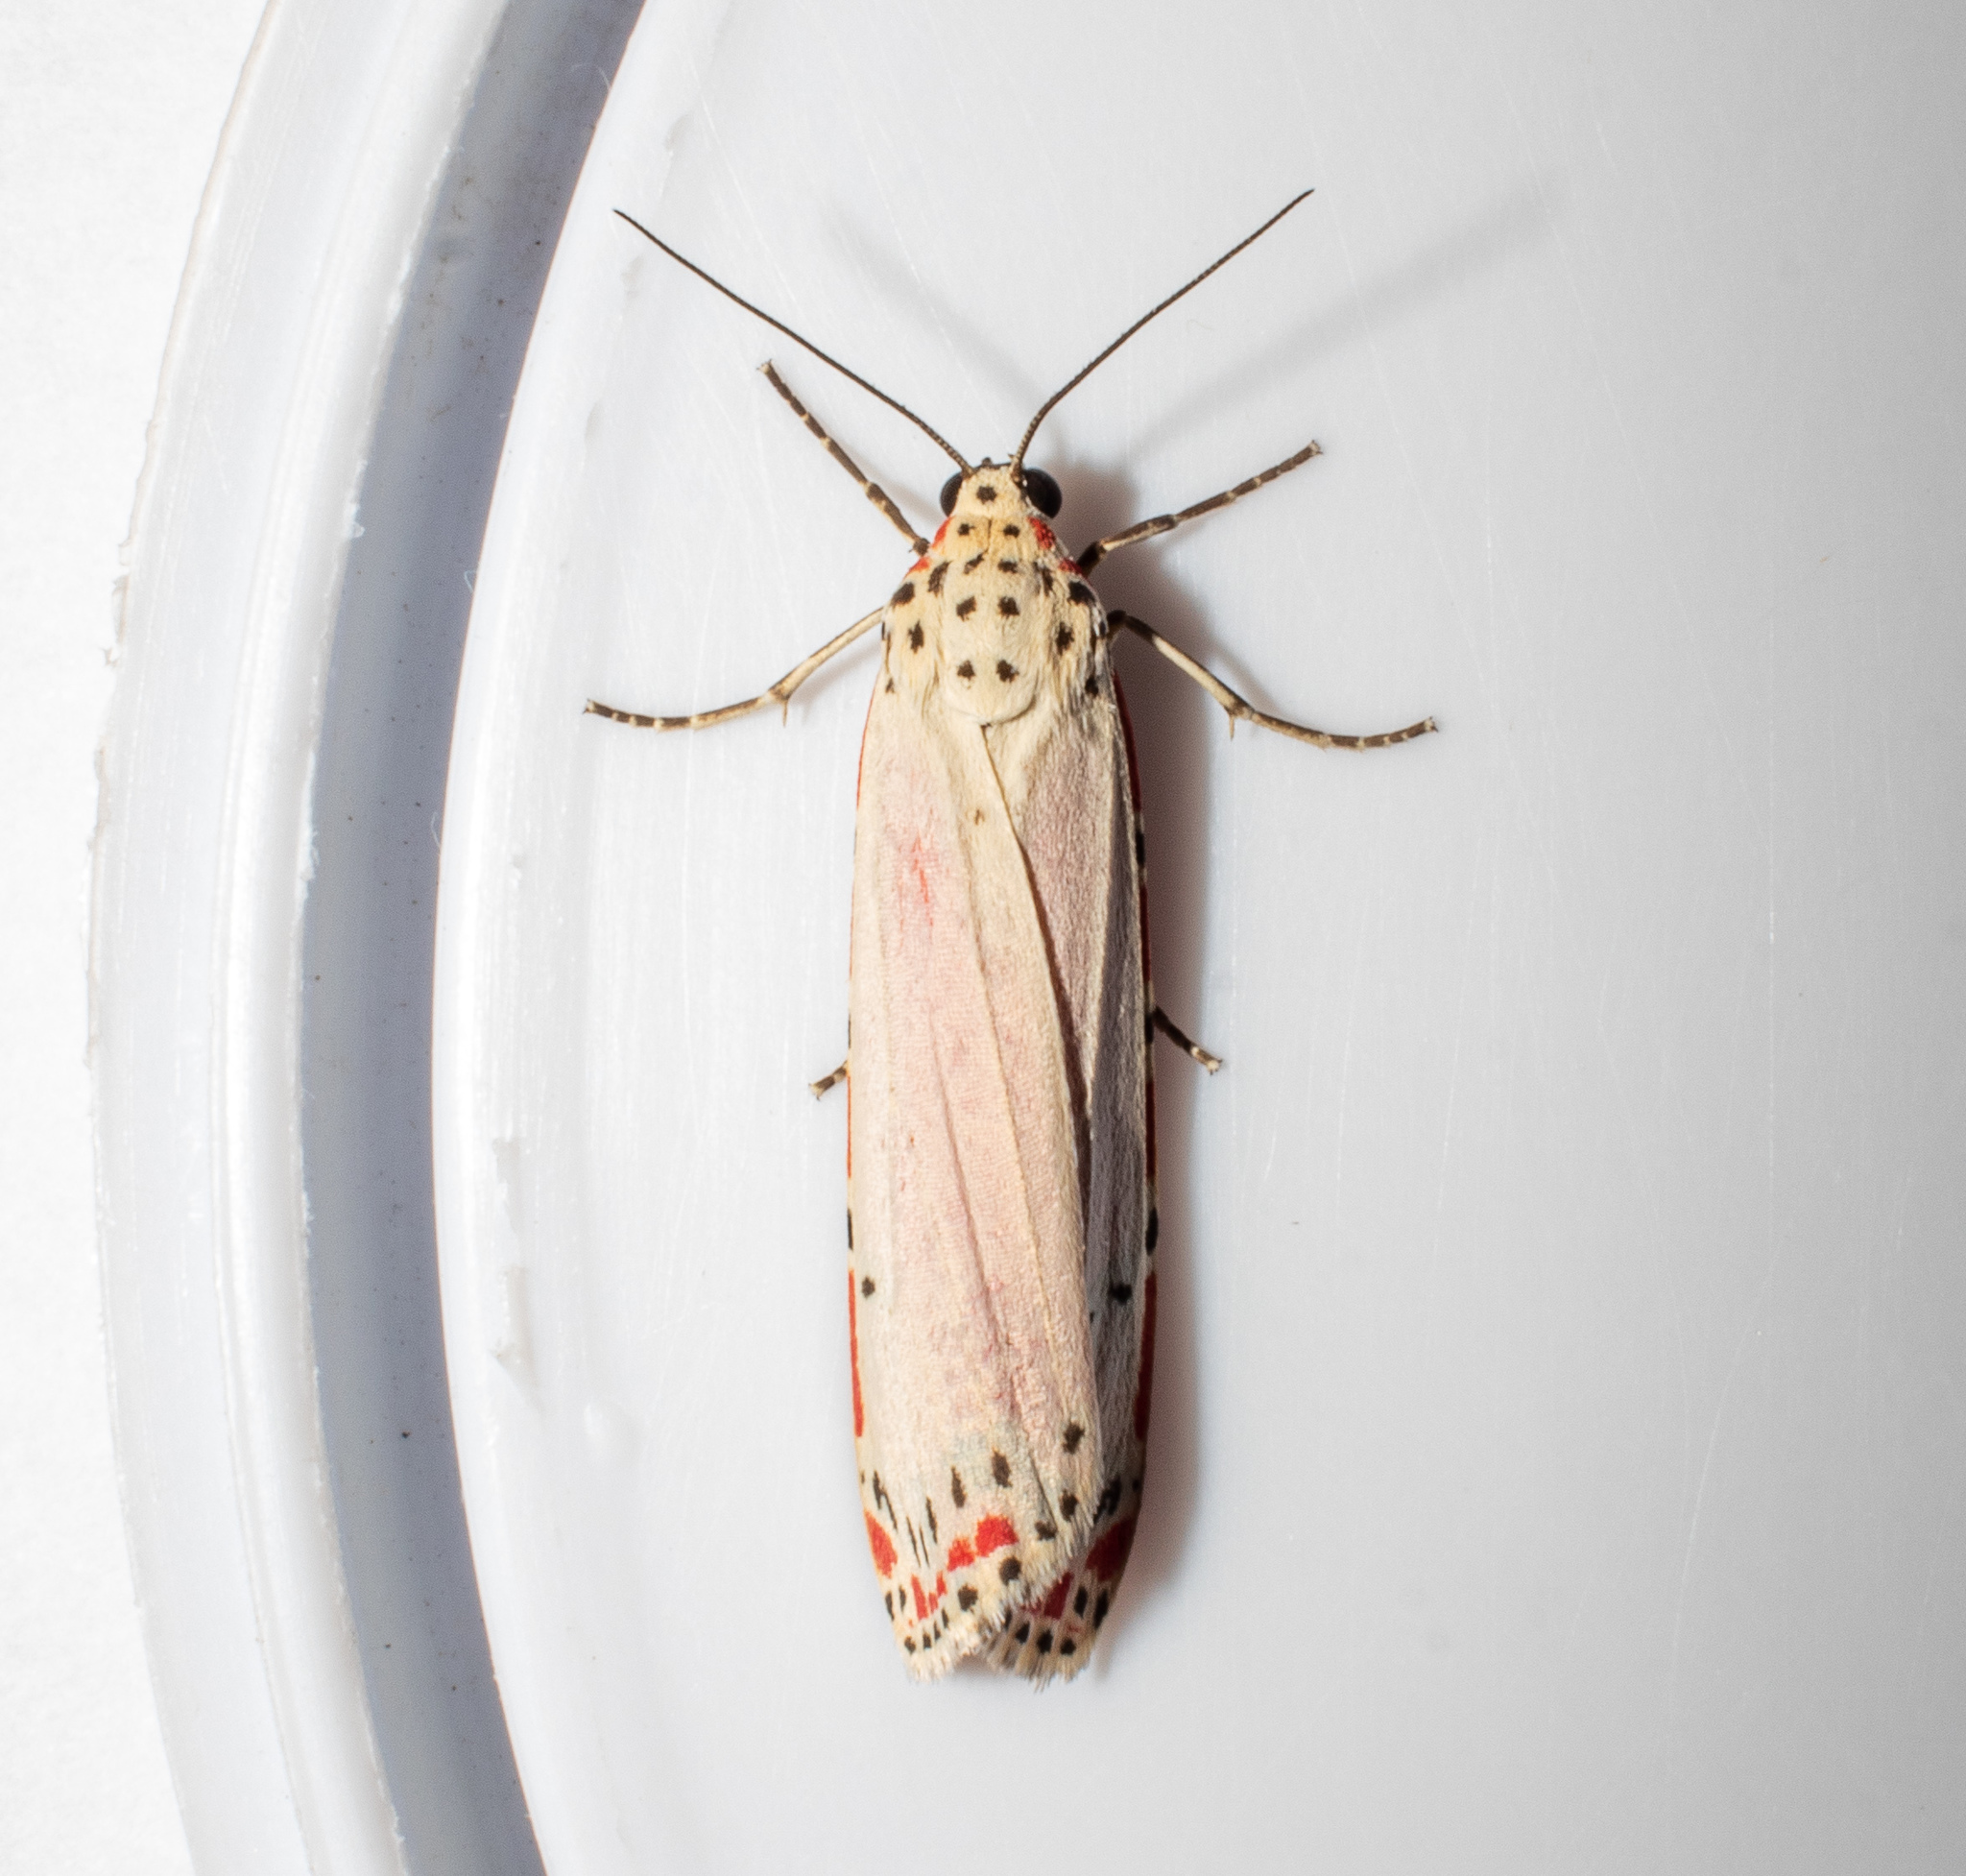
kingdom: Animalia
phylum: Arthropoda
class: Insecta
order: Lepidoptera
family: Erebidae
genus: Utetheisa
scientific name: Utetheisa ornatrix
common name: Beautiful utetheisa
